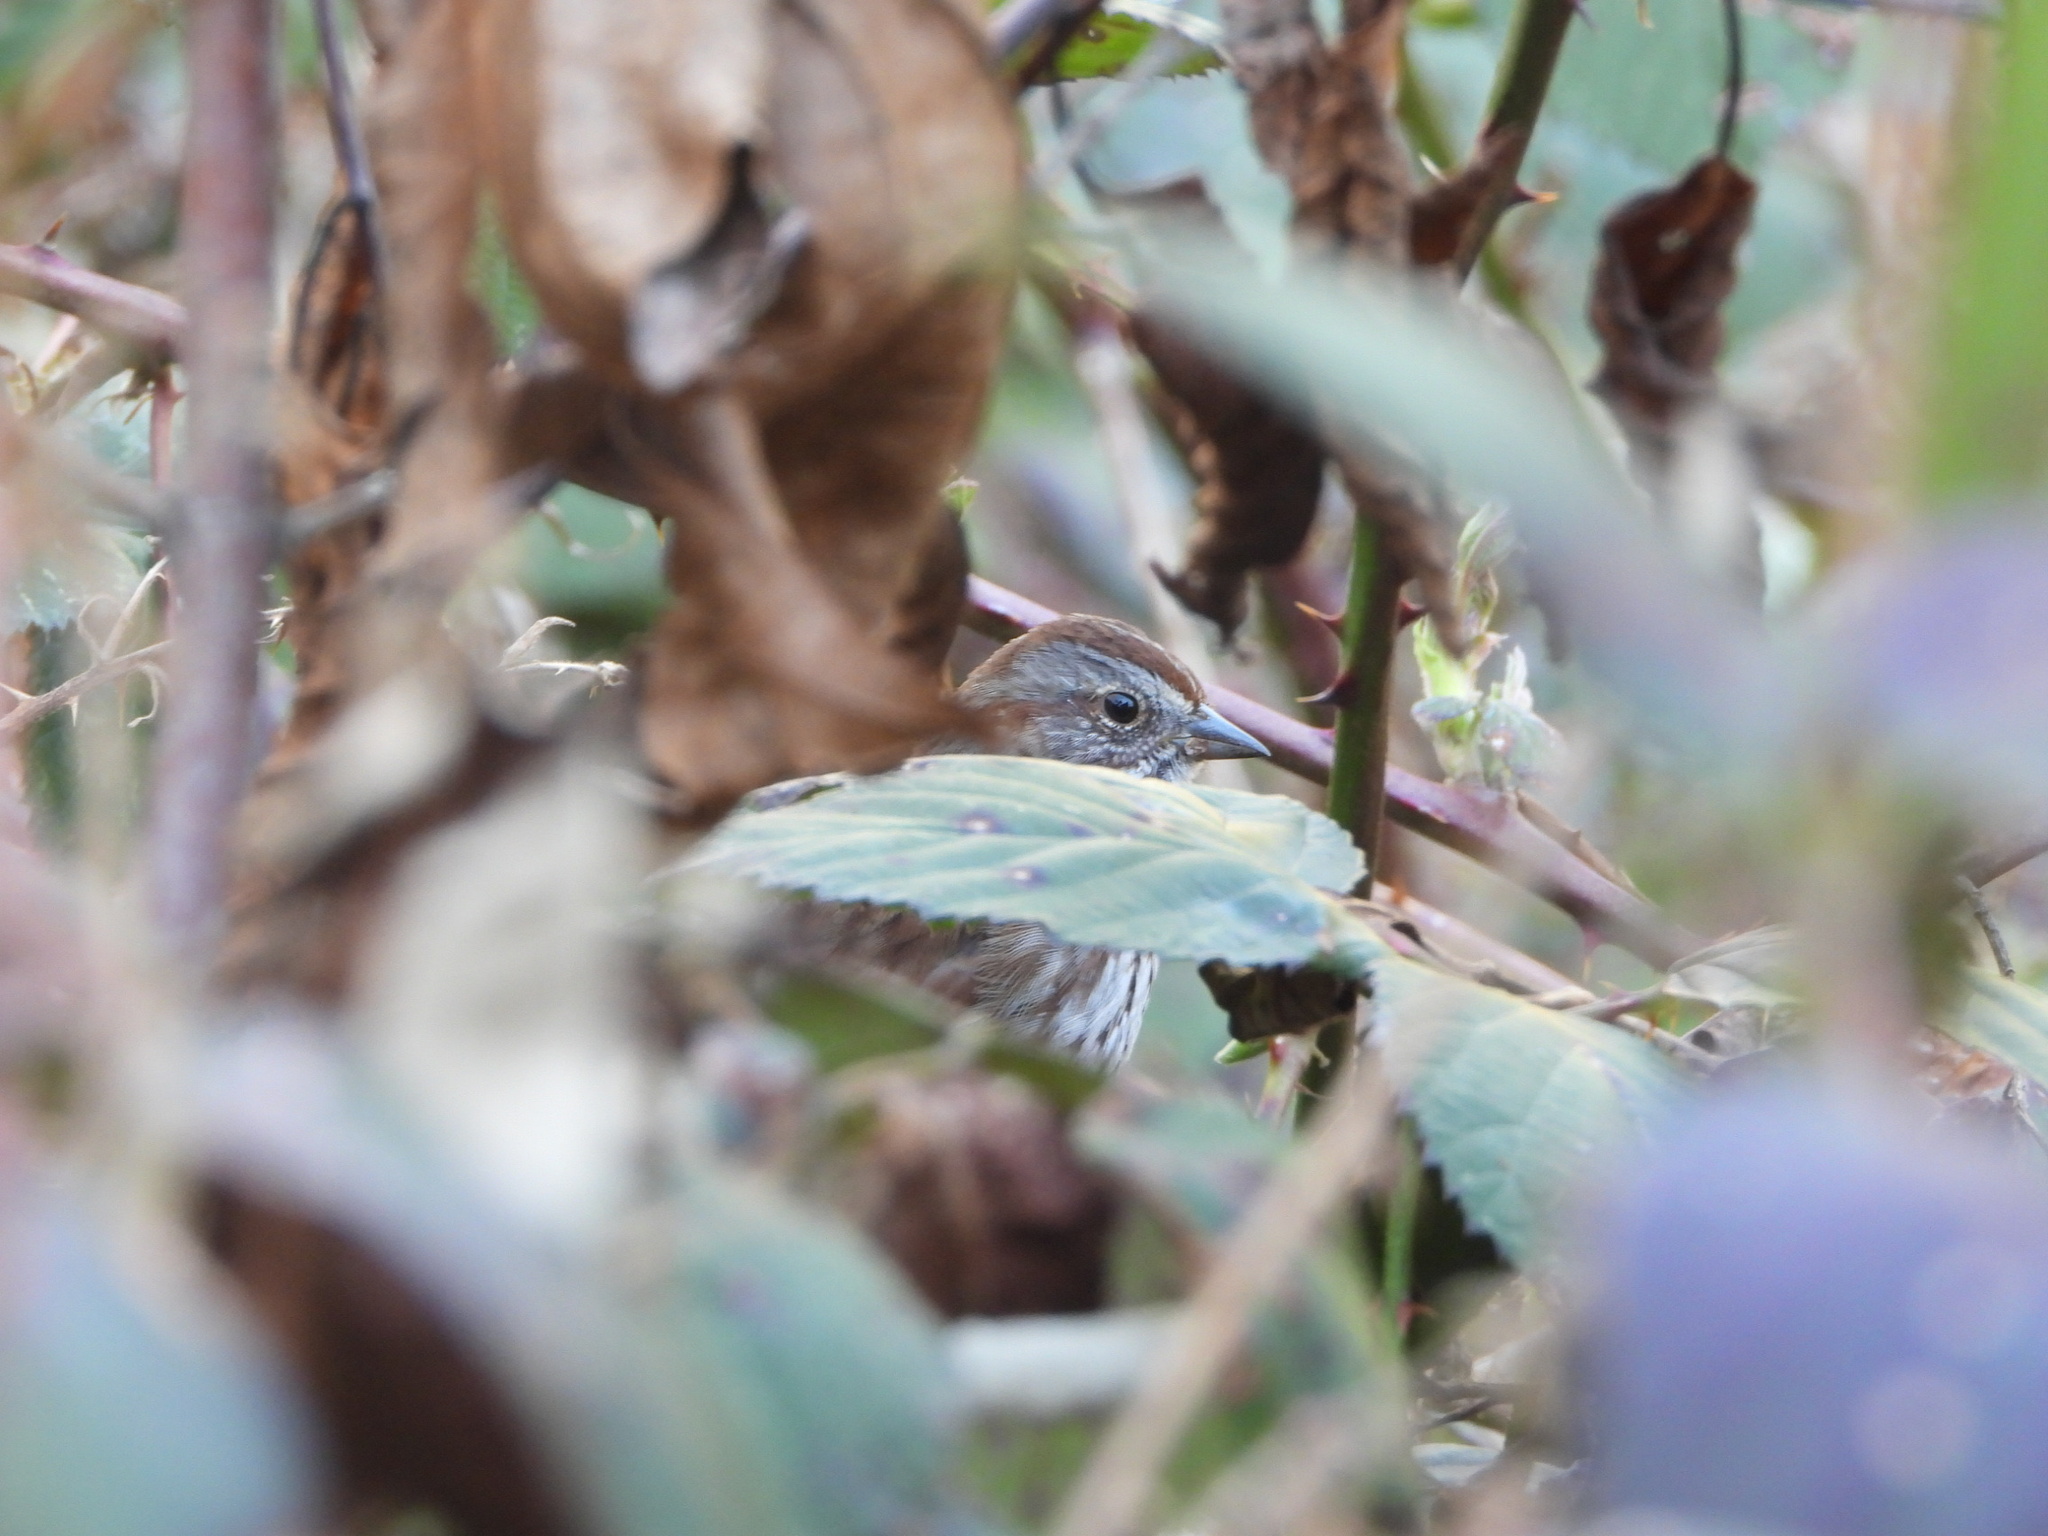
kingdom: Animalia
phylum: Chordata
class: Aves
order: Passeriformes
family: Passerellidae
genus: Melospiza
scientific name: Melospiza melodia
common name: Song sparrow
